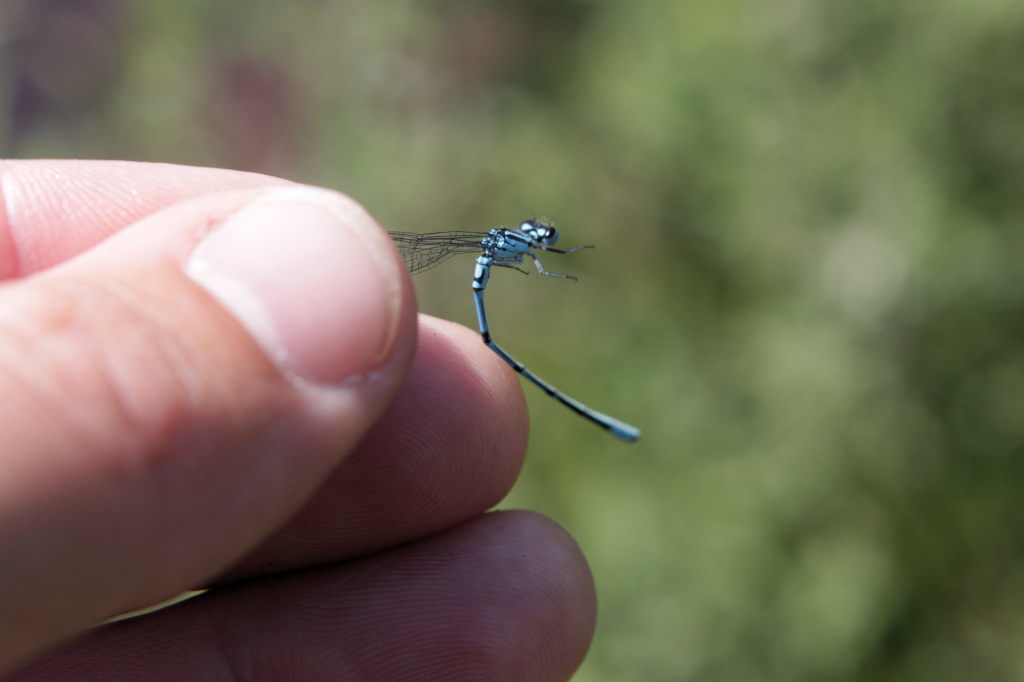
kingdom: Animalia
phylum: Arthropoda
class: Insecta
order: Odonata
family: Coenagrionidae
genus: Coenagrion
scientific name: Coenagrion puella
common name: Azure damselfly
